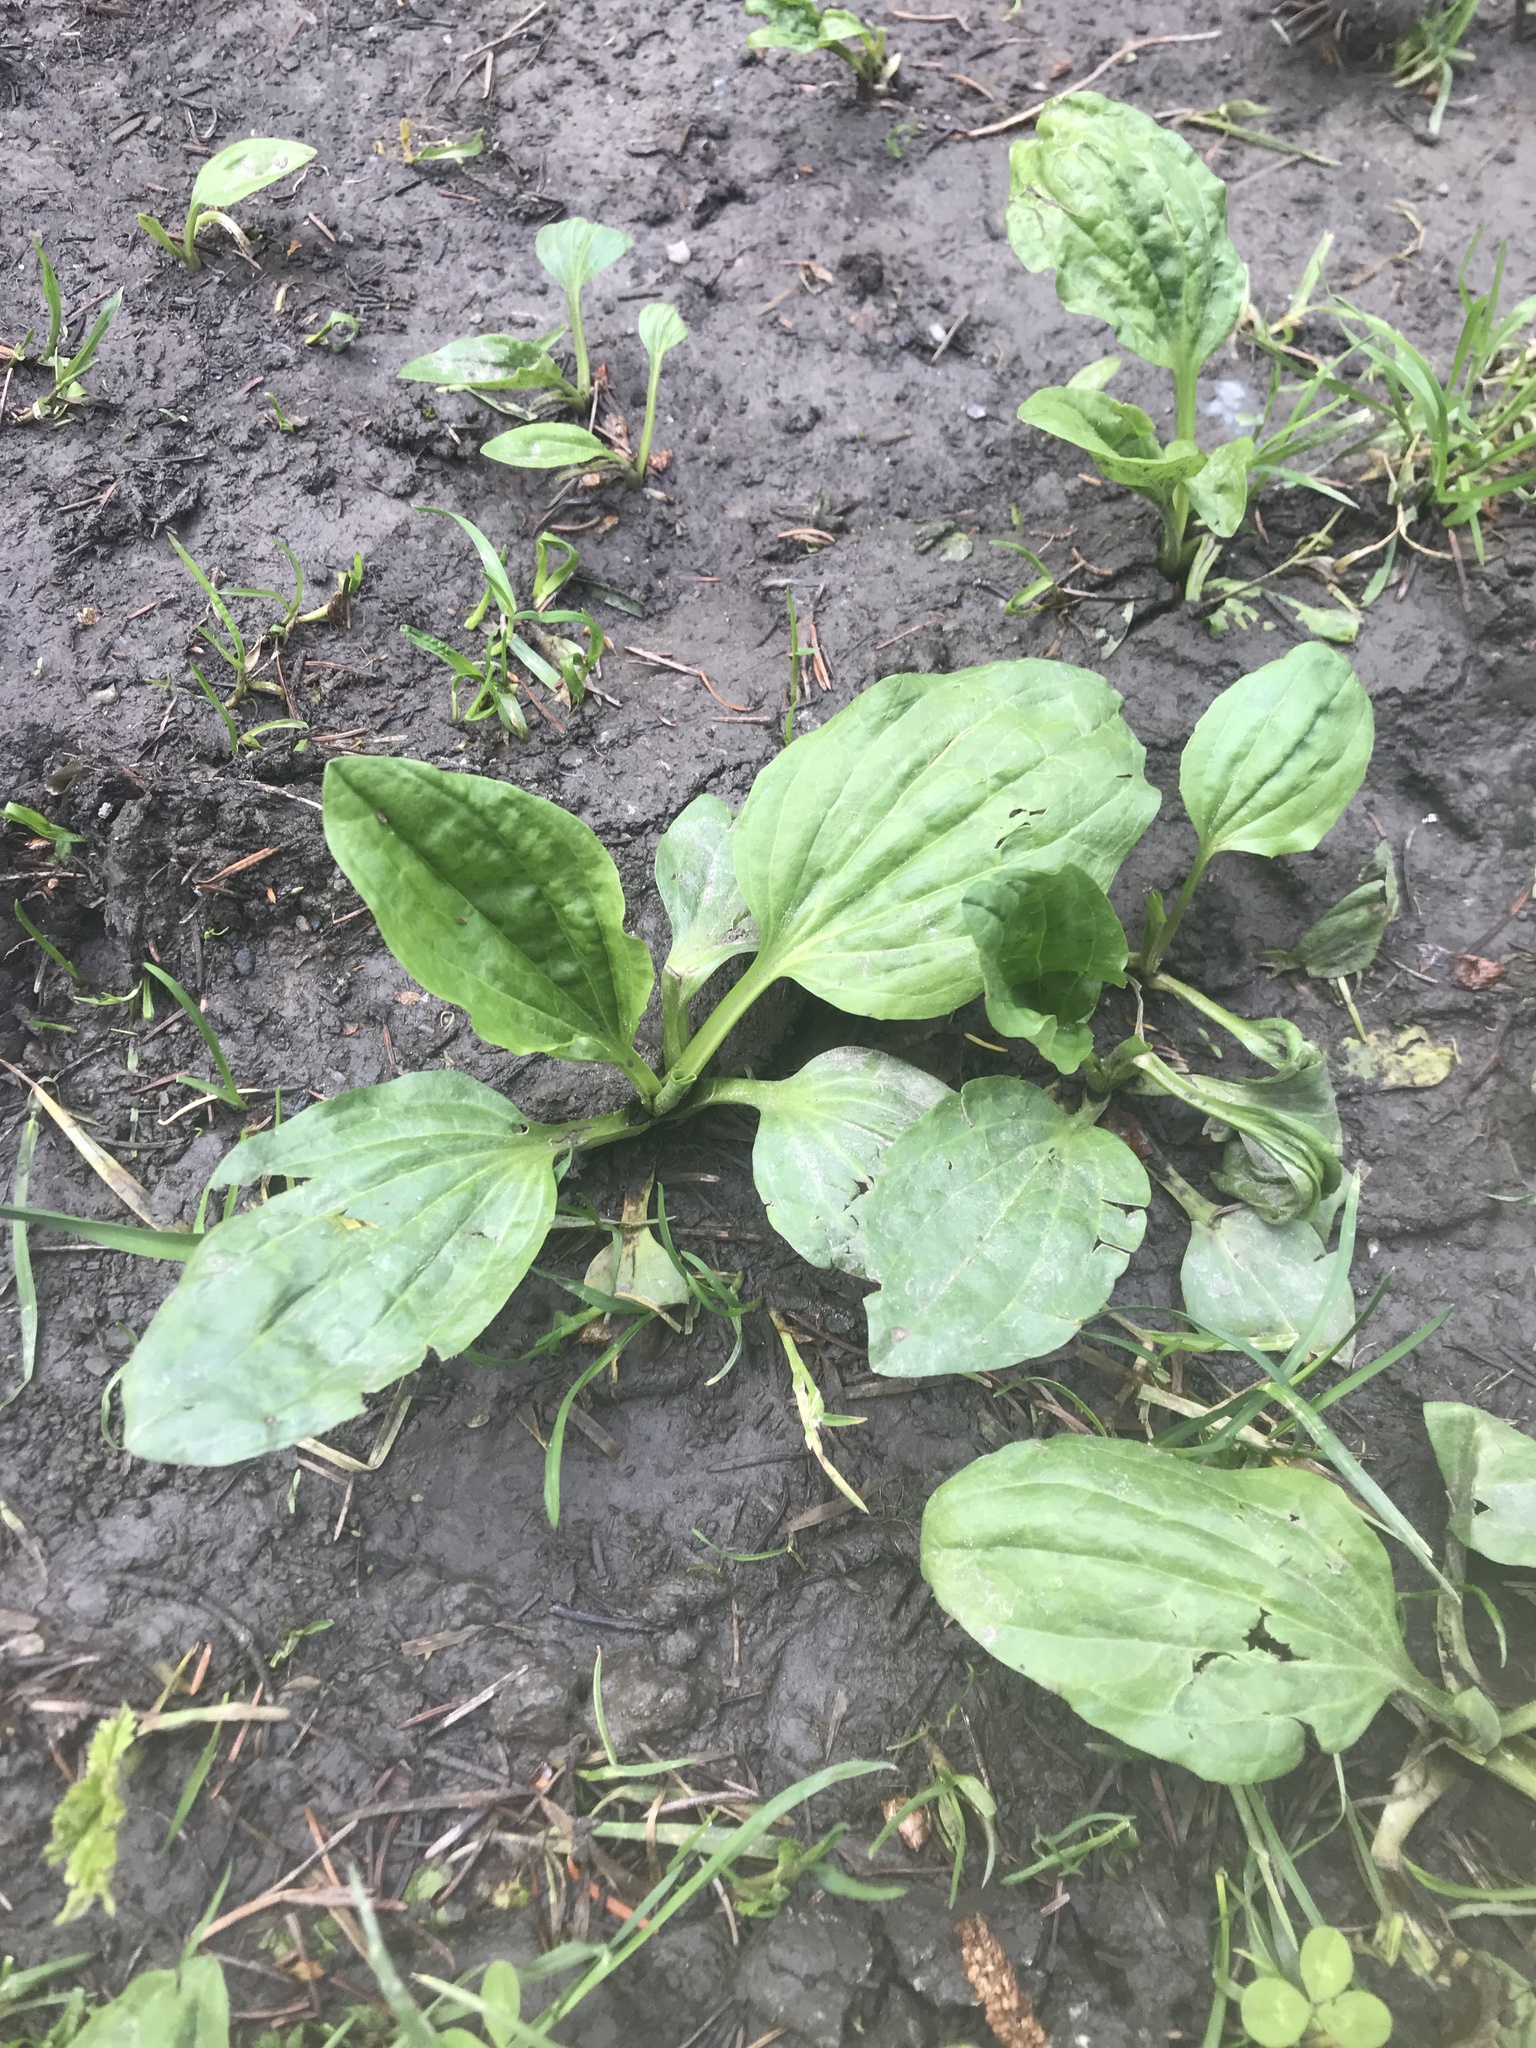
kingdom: Plantae
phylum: Tracheophyta
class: Magnoliopsida
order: Lamiales
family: Plantaginaceae
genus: Plantago
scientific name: Plantago major
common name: Common plantain
